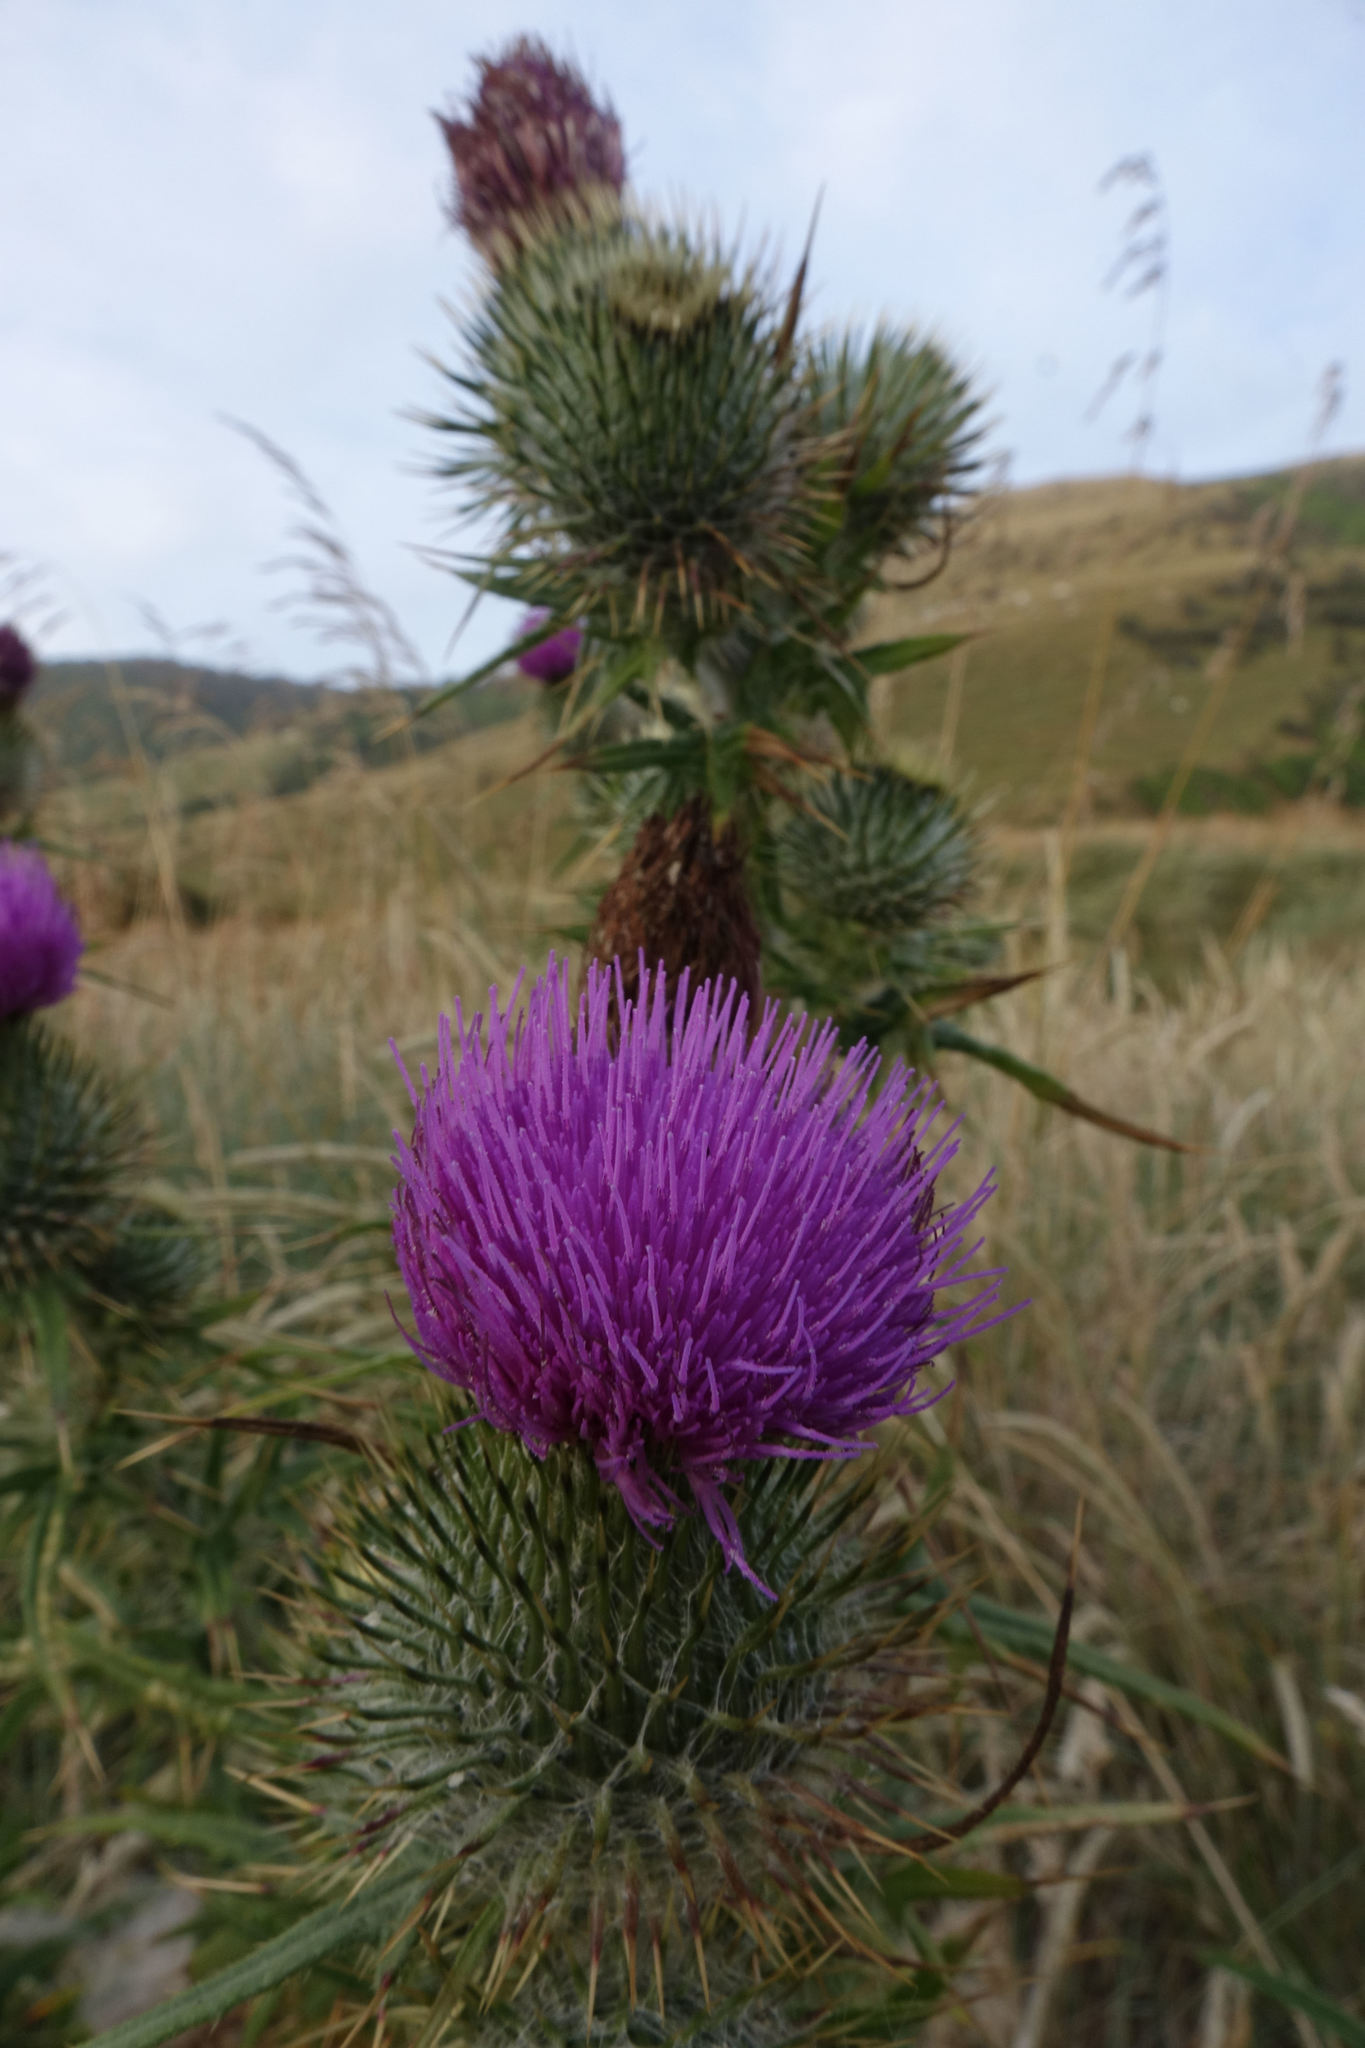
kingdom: Plantae
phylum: Tracheophyta
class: Magnoliopsida
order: Asterales
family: Asteraceae
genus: Cirsium
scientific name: Cirsium vulgare
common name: Bull thistle
